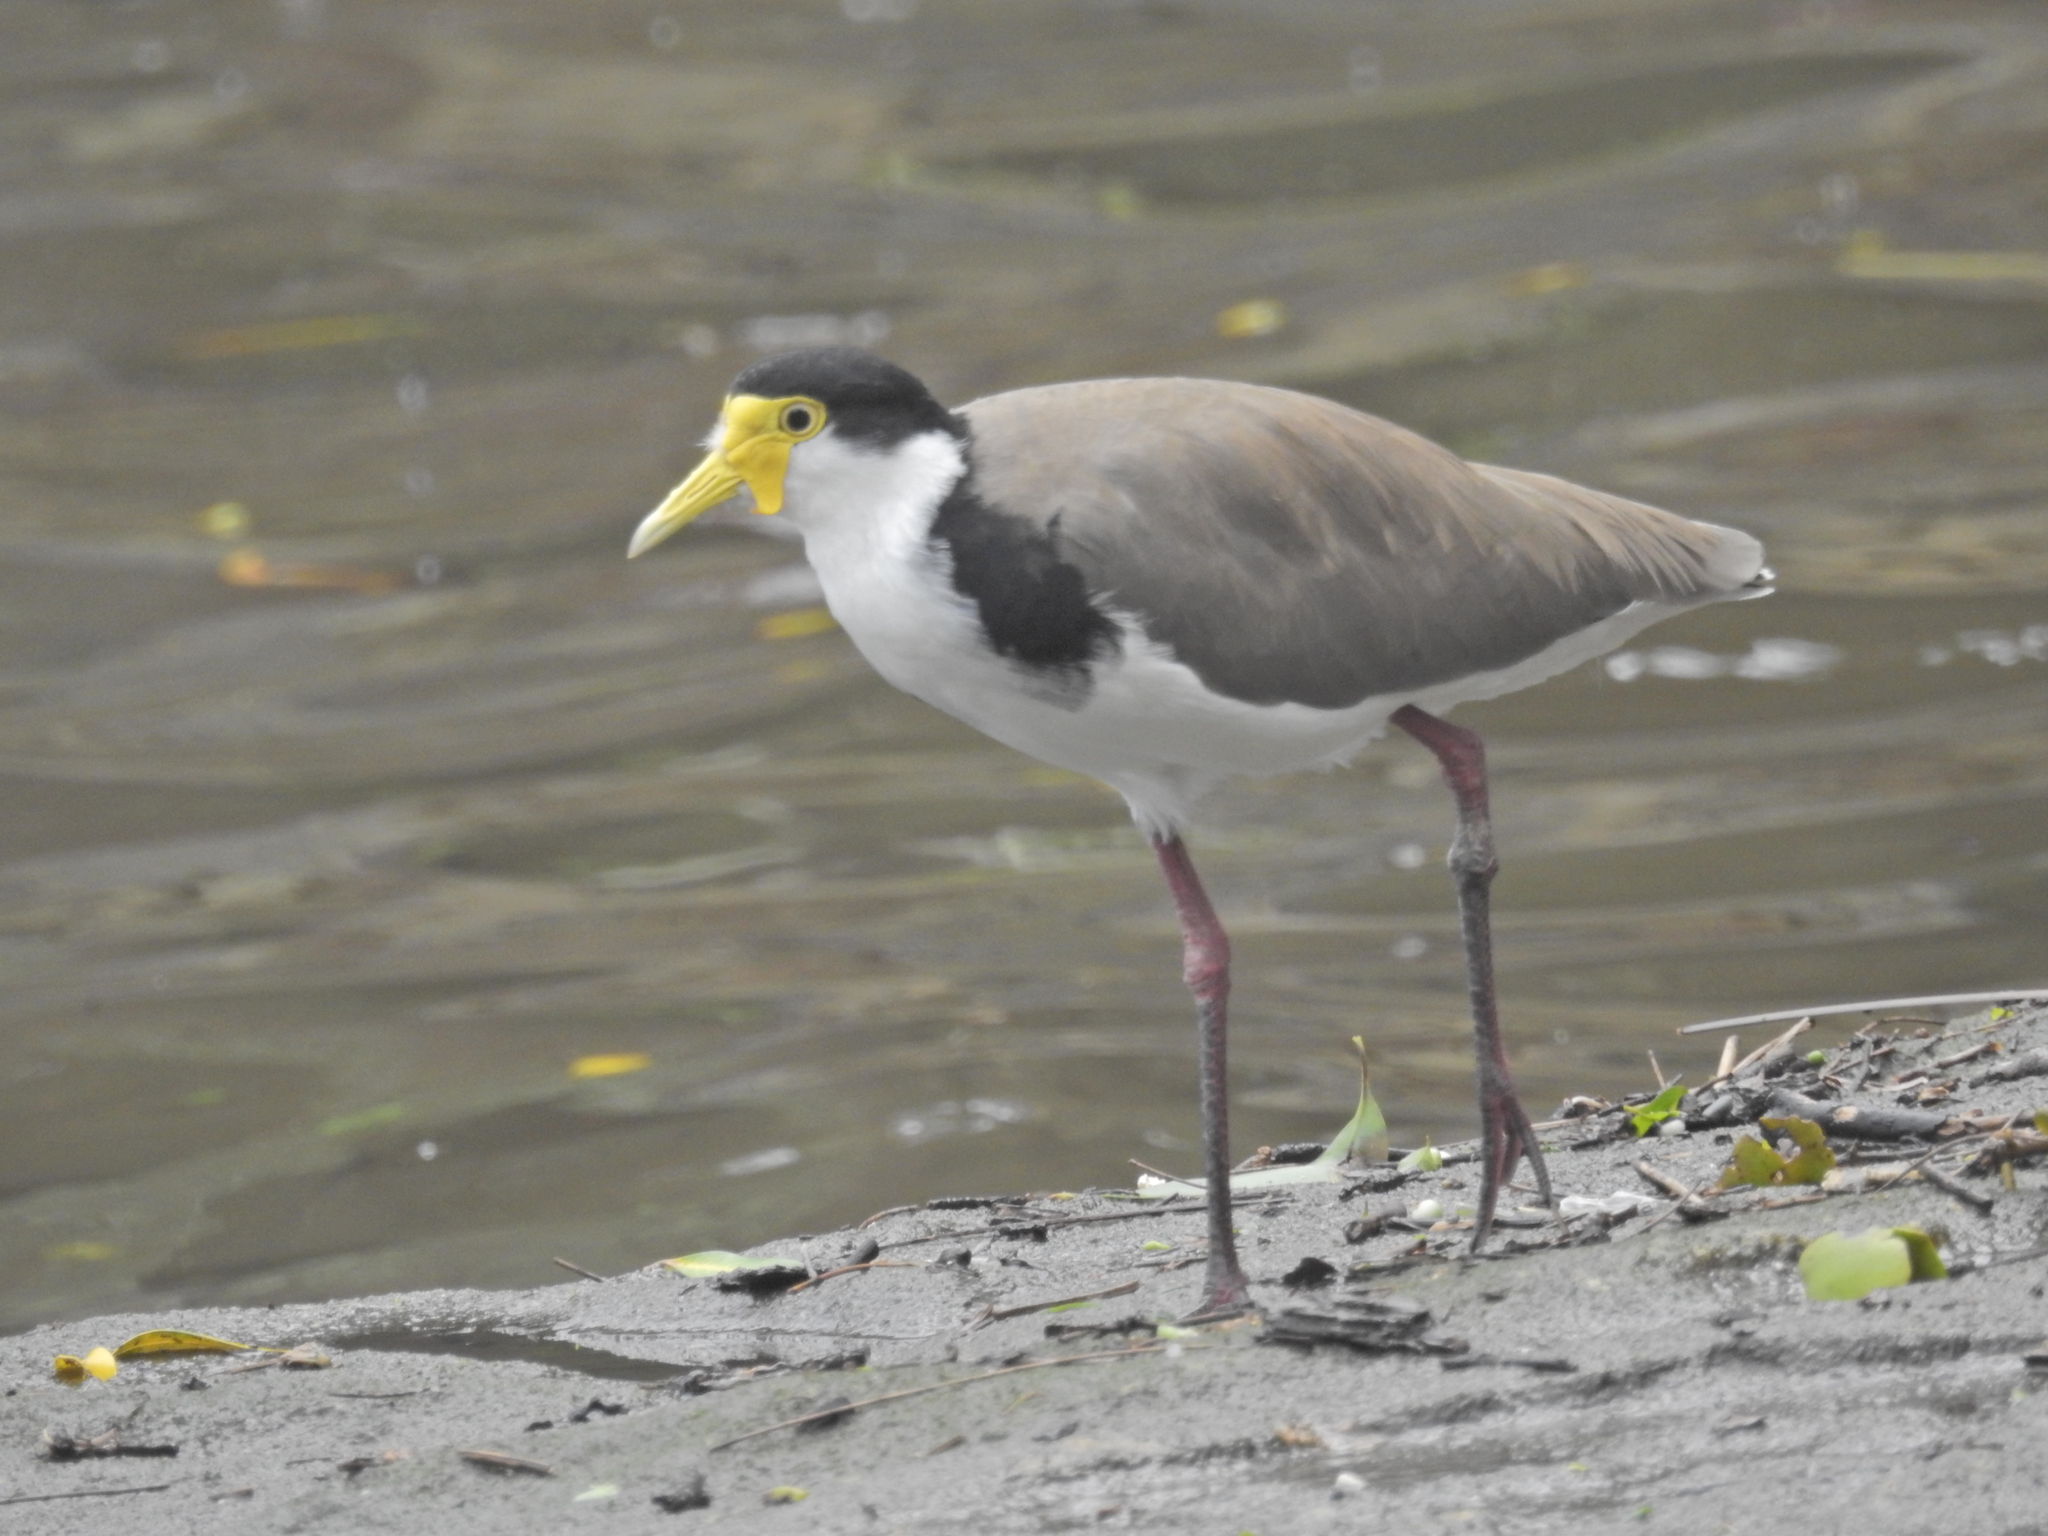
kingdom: Animalia
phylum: Chordata
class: Aves
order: Charadriiformes
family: Charadriidae
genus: Vanellus
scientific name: Vanellus miles
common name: Masked lapwing
